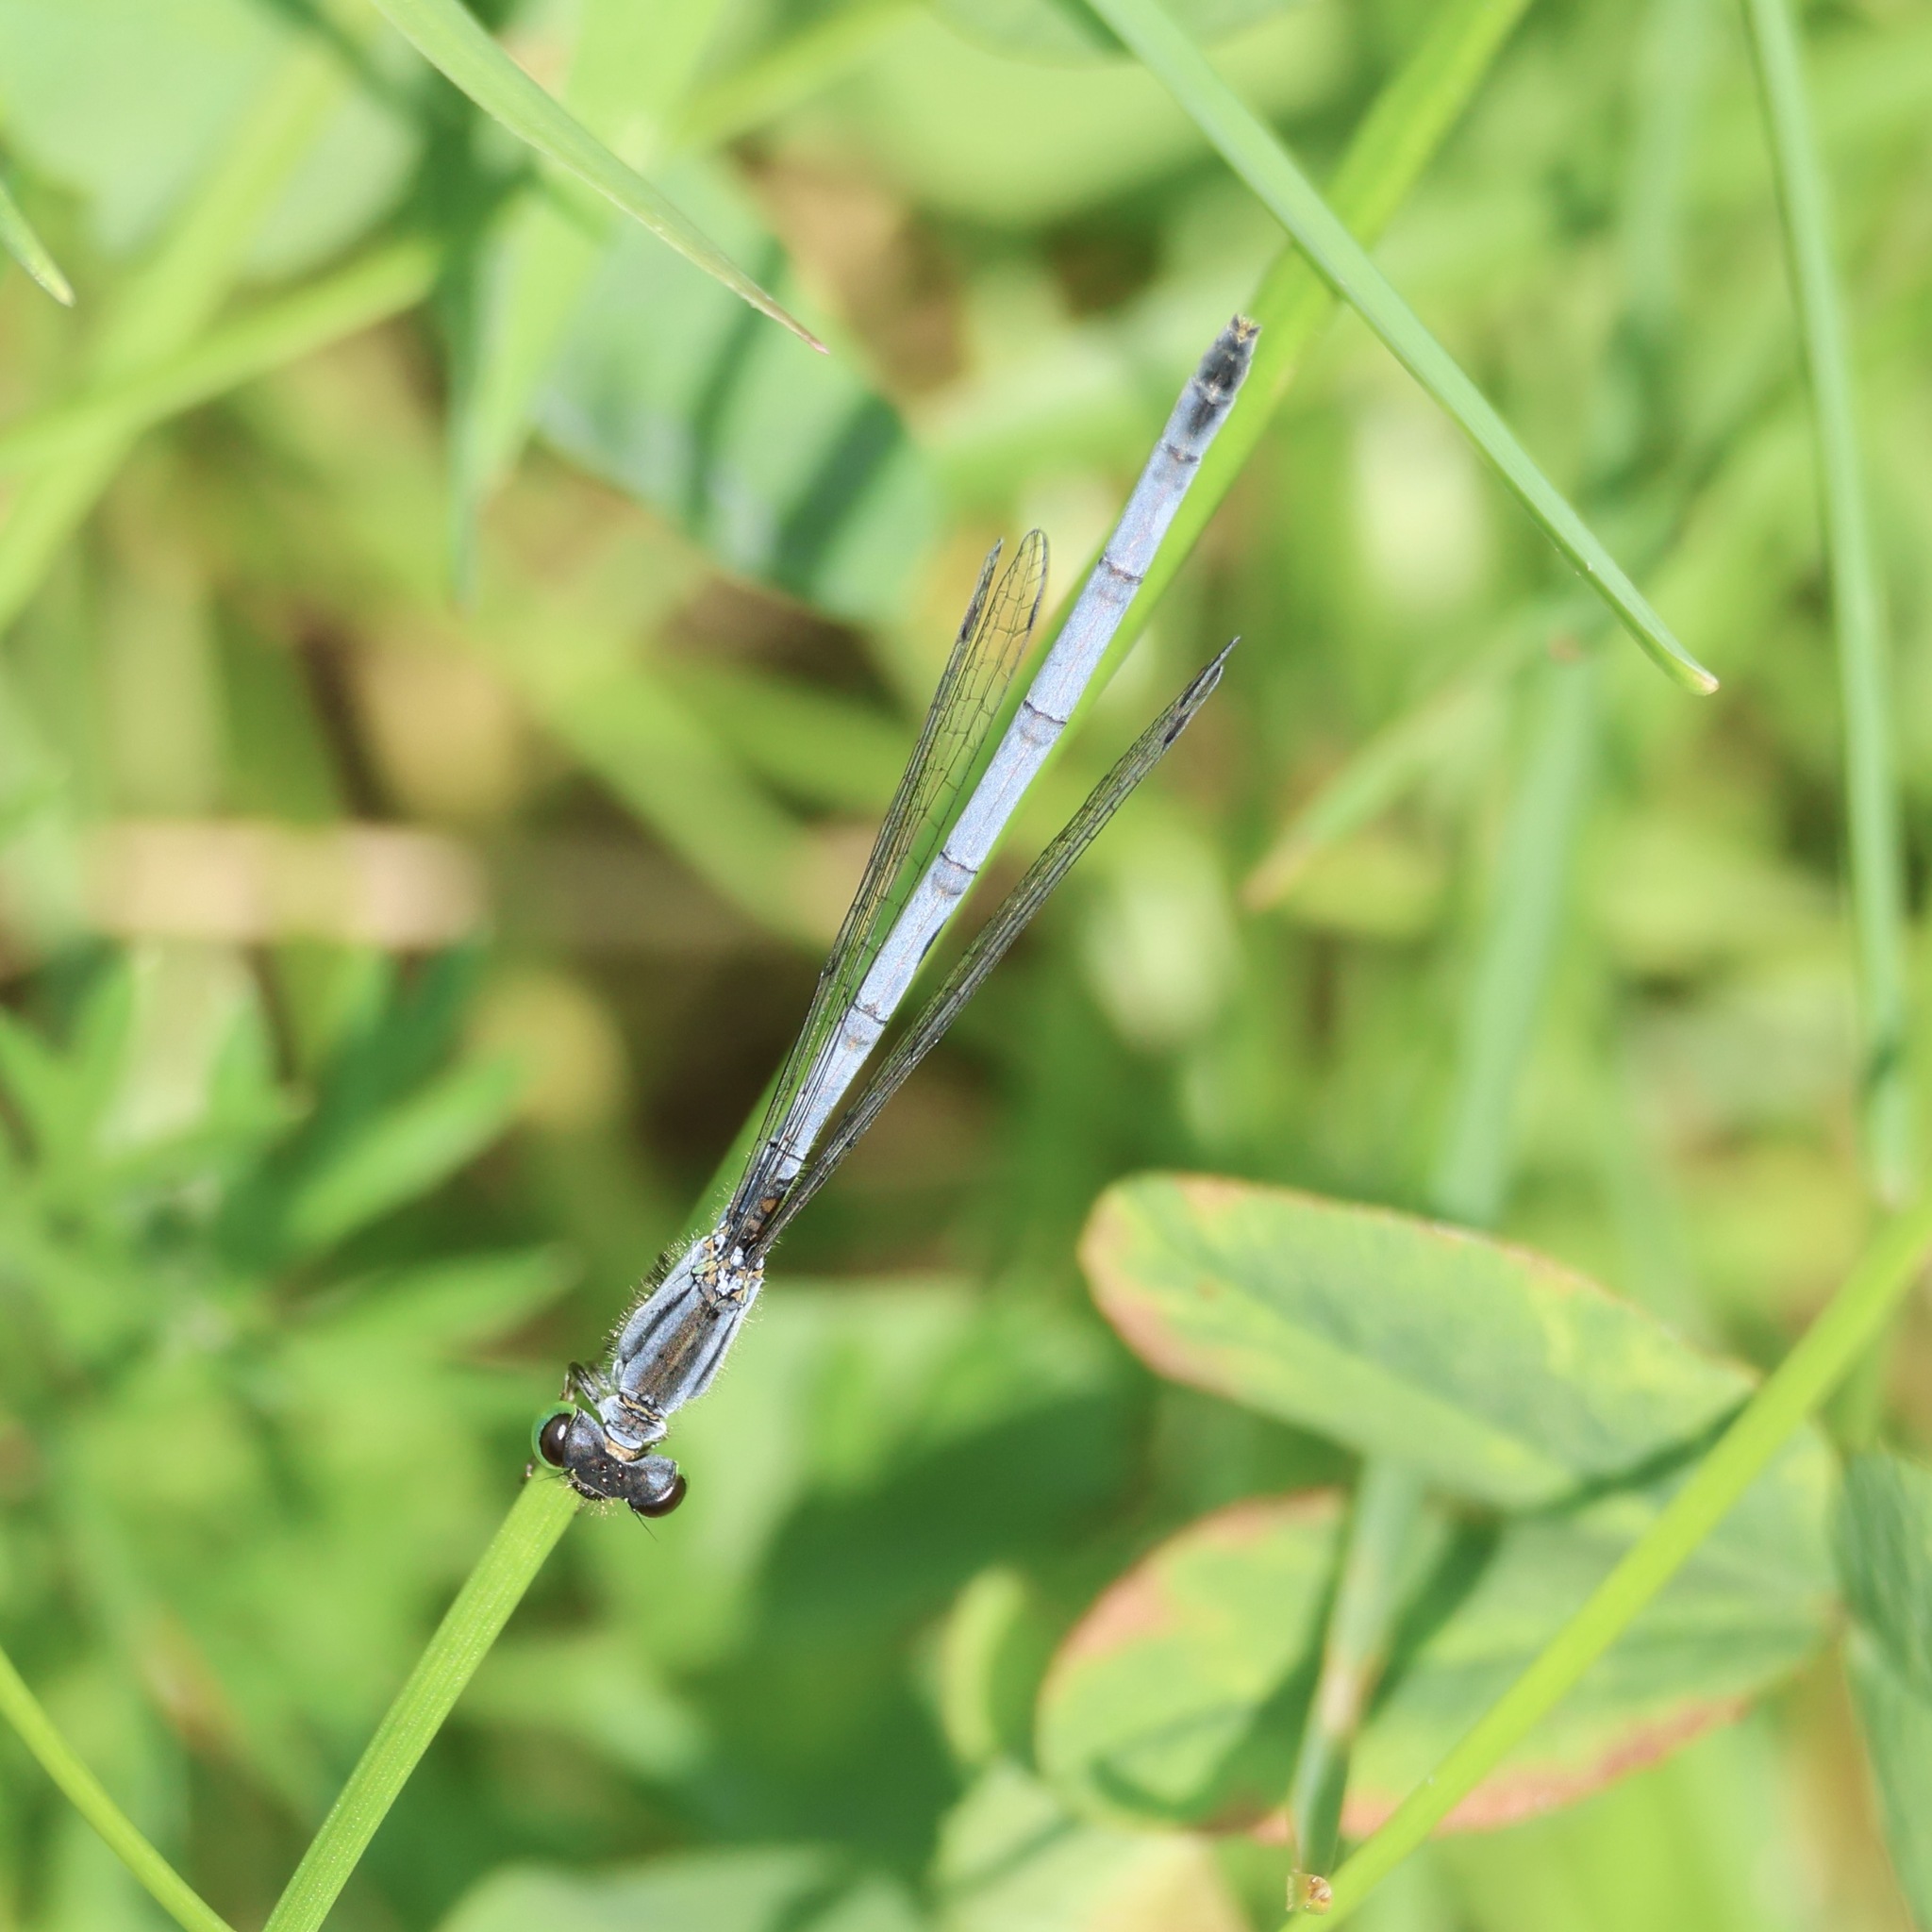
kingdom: Animalia
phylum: Arthropoda
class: Insecta
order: Odonata
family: Coenagrionidae
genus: Ischnura
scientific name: Ischnura verticalis
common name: Eastern forktail
